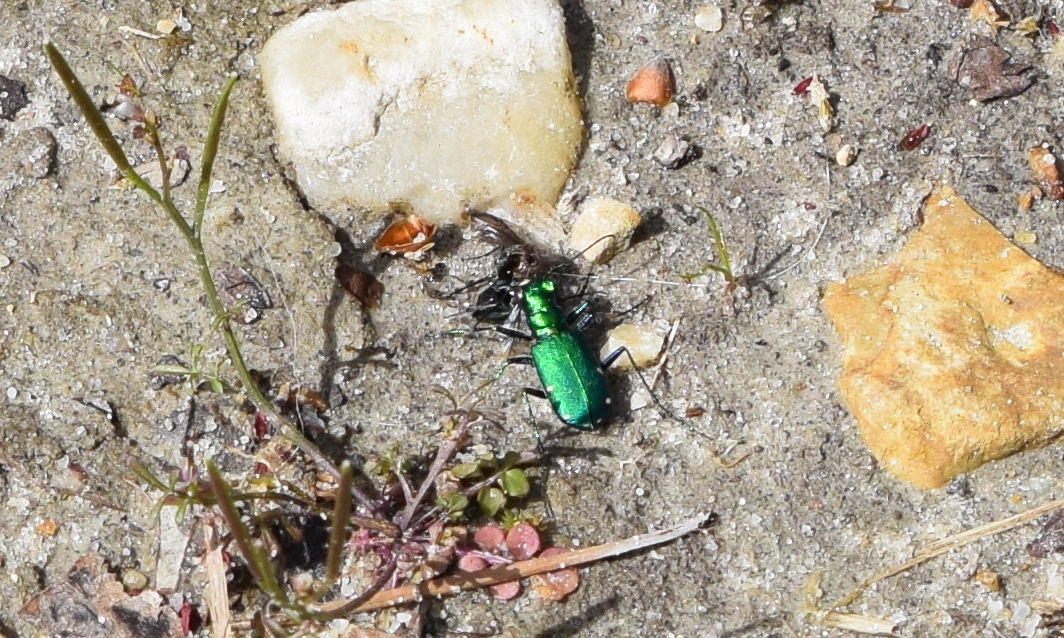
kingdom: Animalia
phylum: Arthropoda
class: Insecta
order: Coleoptera
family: Carabidae
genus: Cicindela
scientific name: Cicindela sexguttata
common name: Six-spotted tiger beetle
